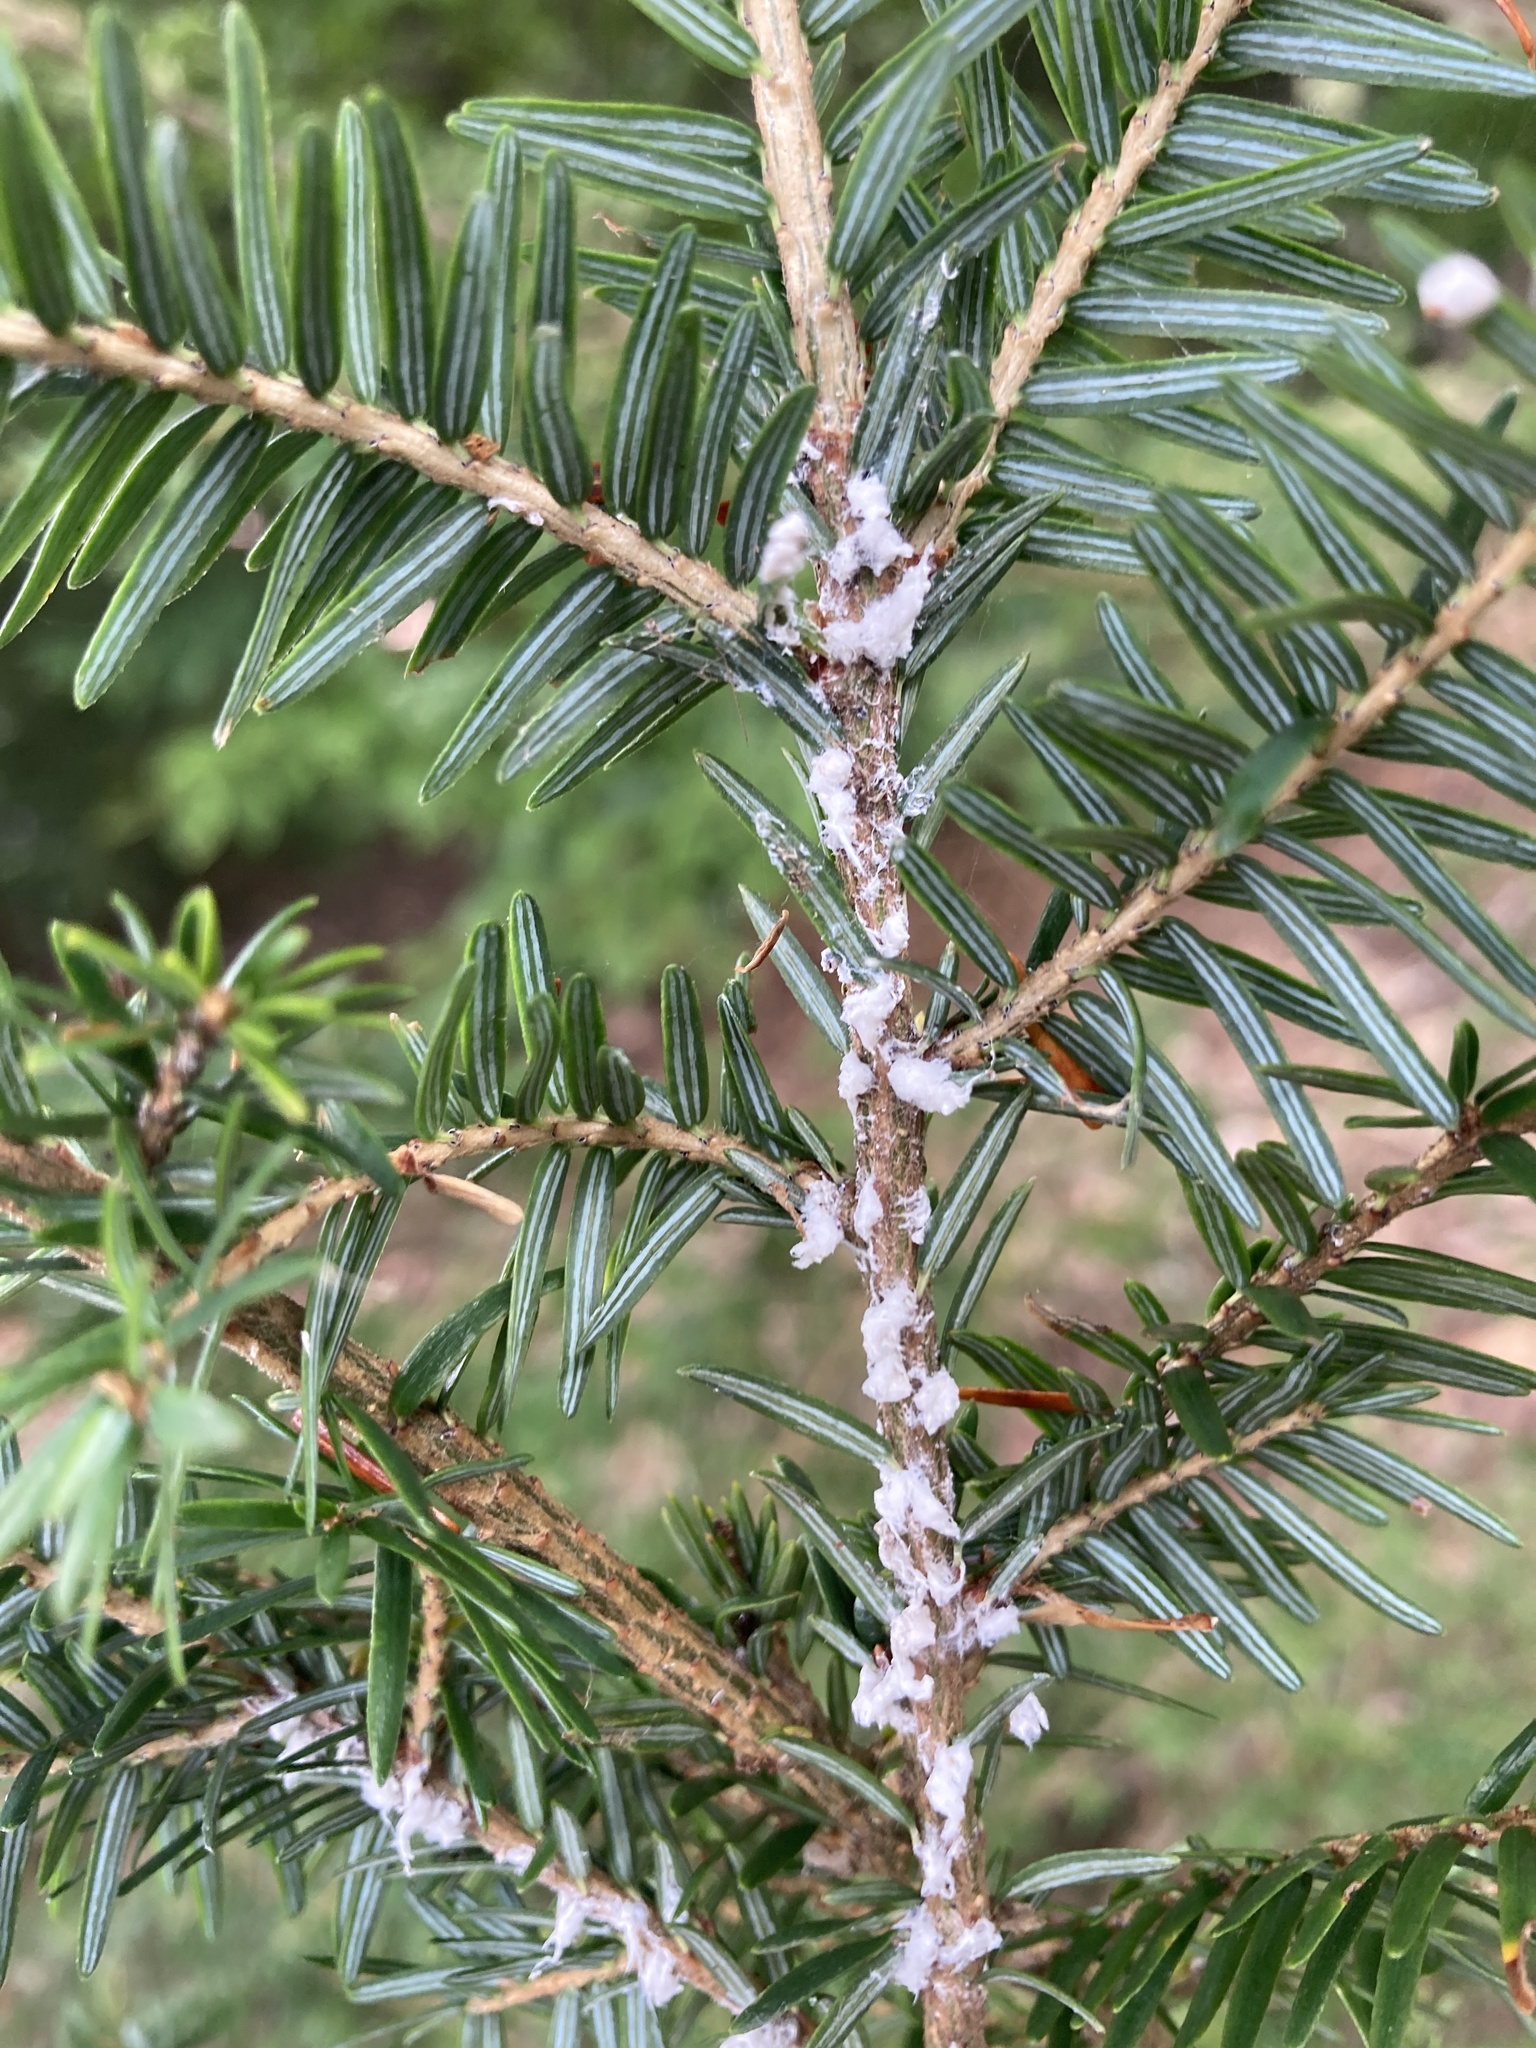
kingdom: Animalia
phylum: Arthropoda
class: Insecta
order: Hemiptera
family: Adelgidae
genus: Adelges
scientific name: Adelges tsugae
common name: Hemlock woolly adelgid
